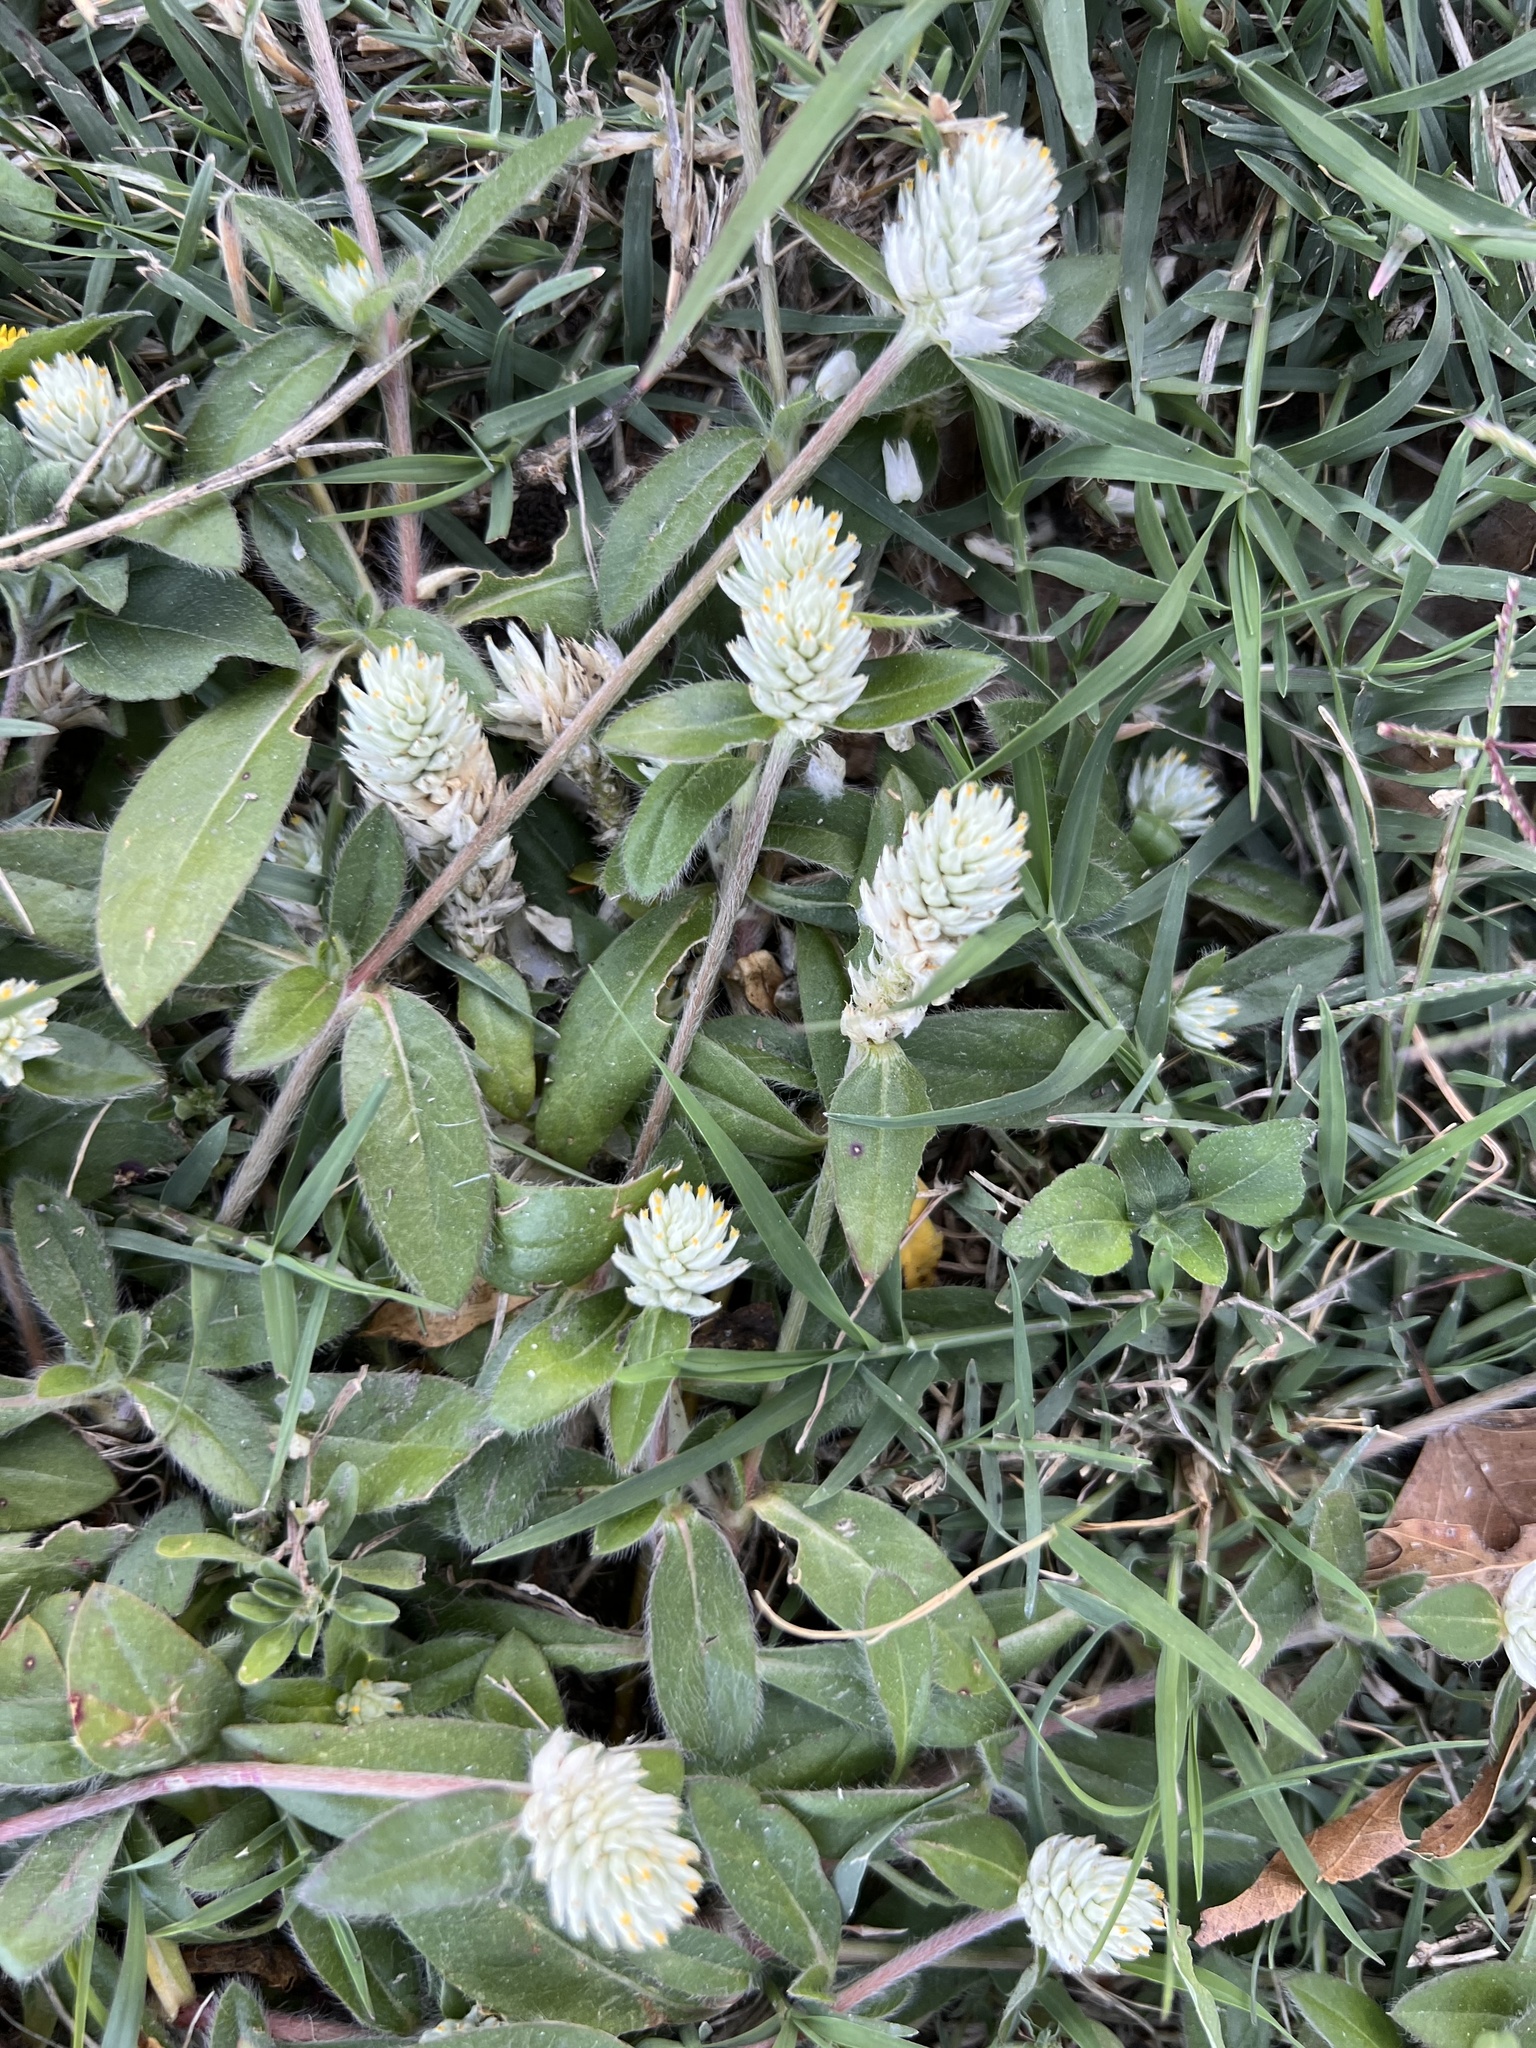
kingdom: Plantae
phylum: Tracheophyta
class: Magnoliopsida
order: Caryophyllales
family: Amaranthaceae
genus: Gomphrena
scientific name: Gomphrena serrata
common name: Arrasa con todo
